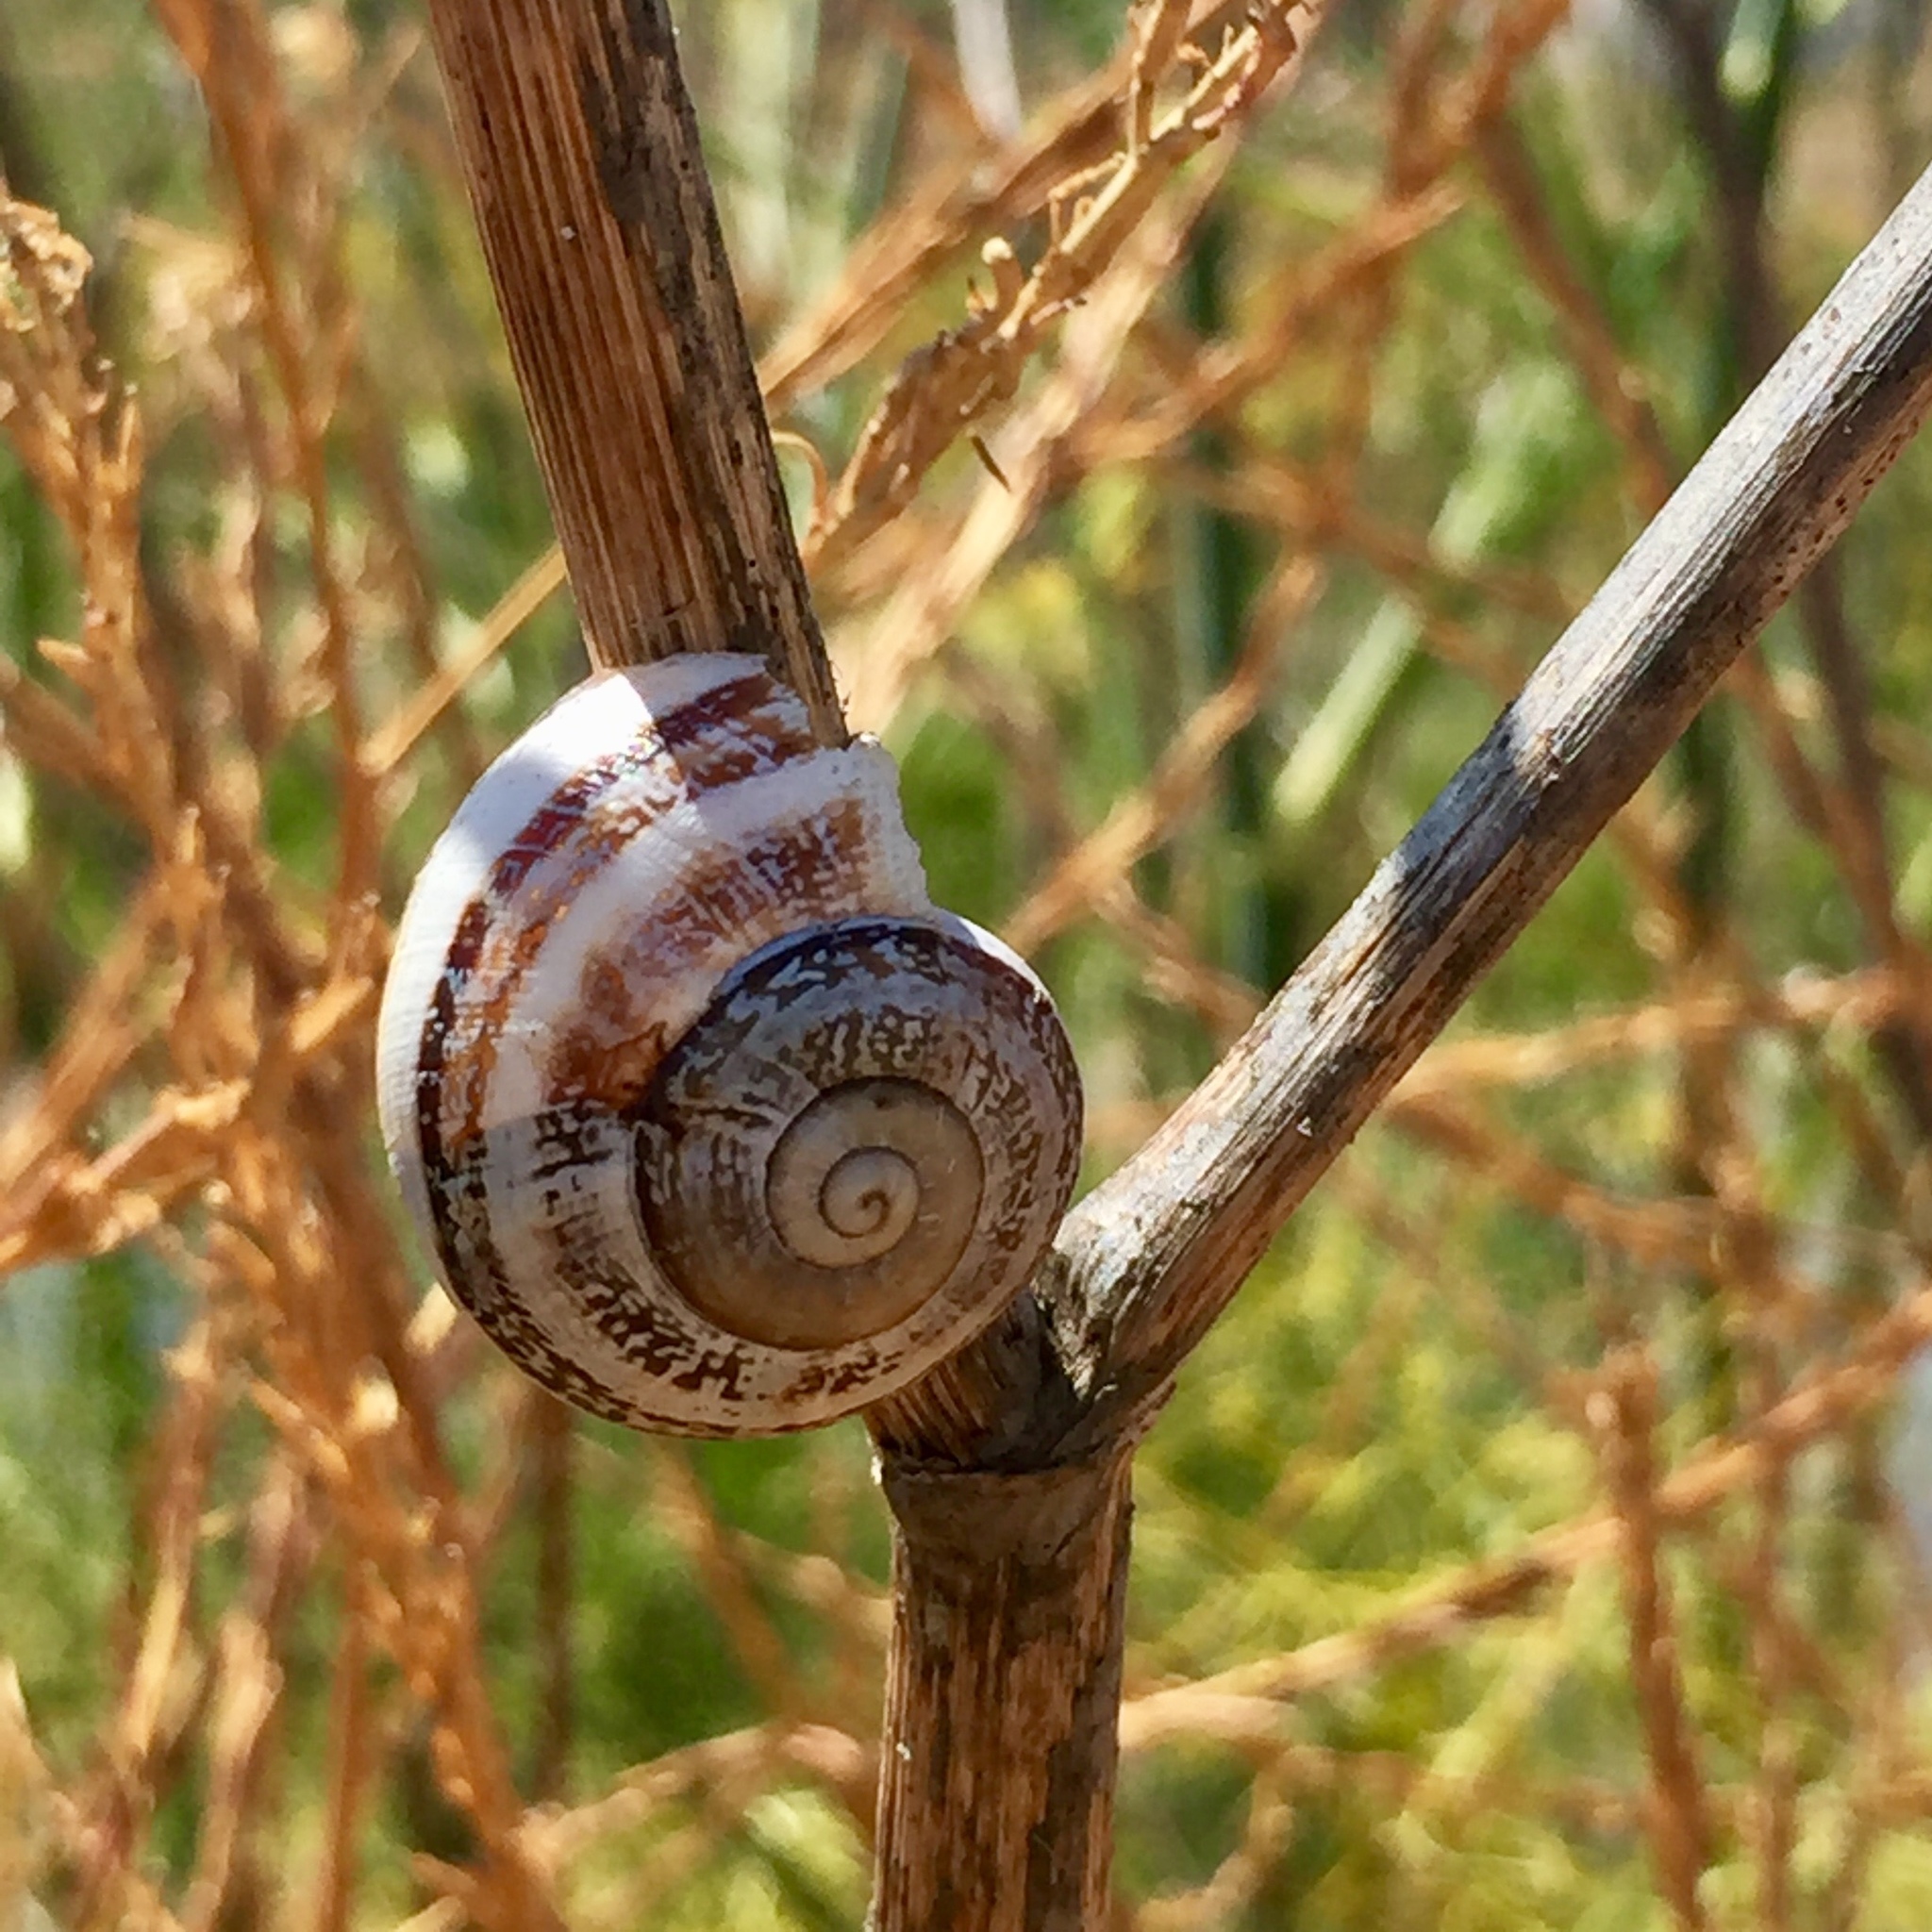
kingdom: Animalia
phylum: Mollusca
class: Gastropoda
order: Stylommatophora
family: Helicidae
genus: Otala
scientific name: Otala lactea
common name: Milk snail
